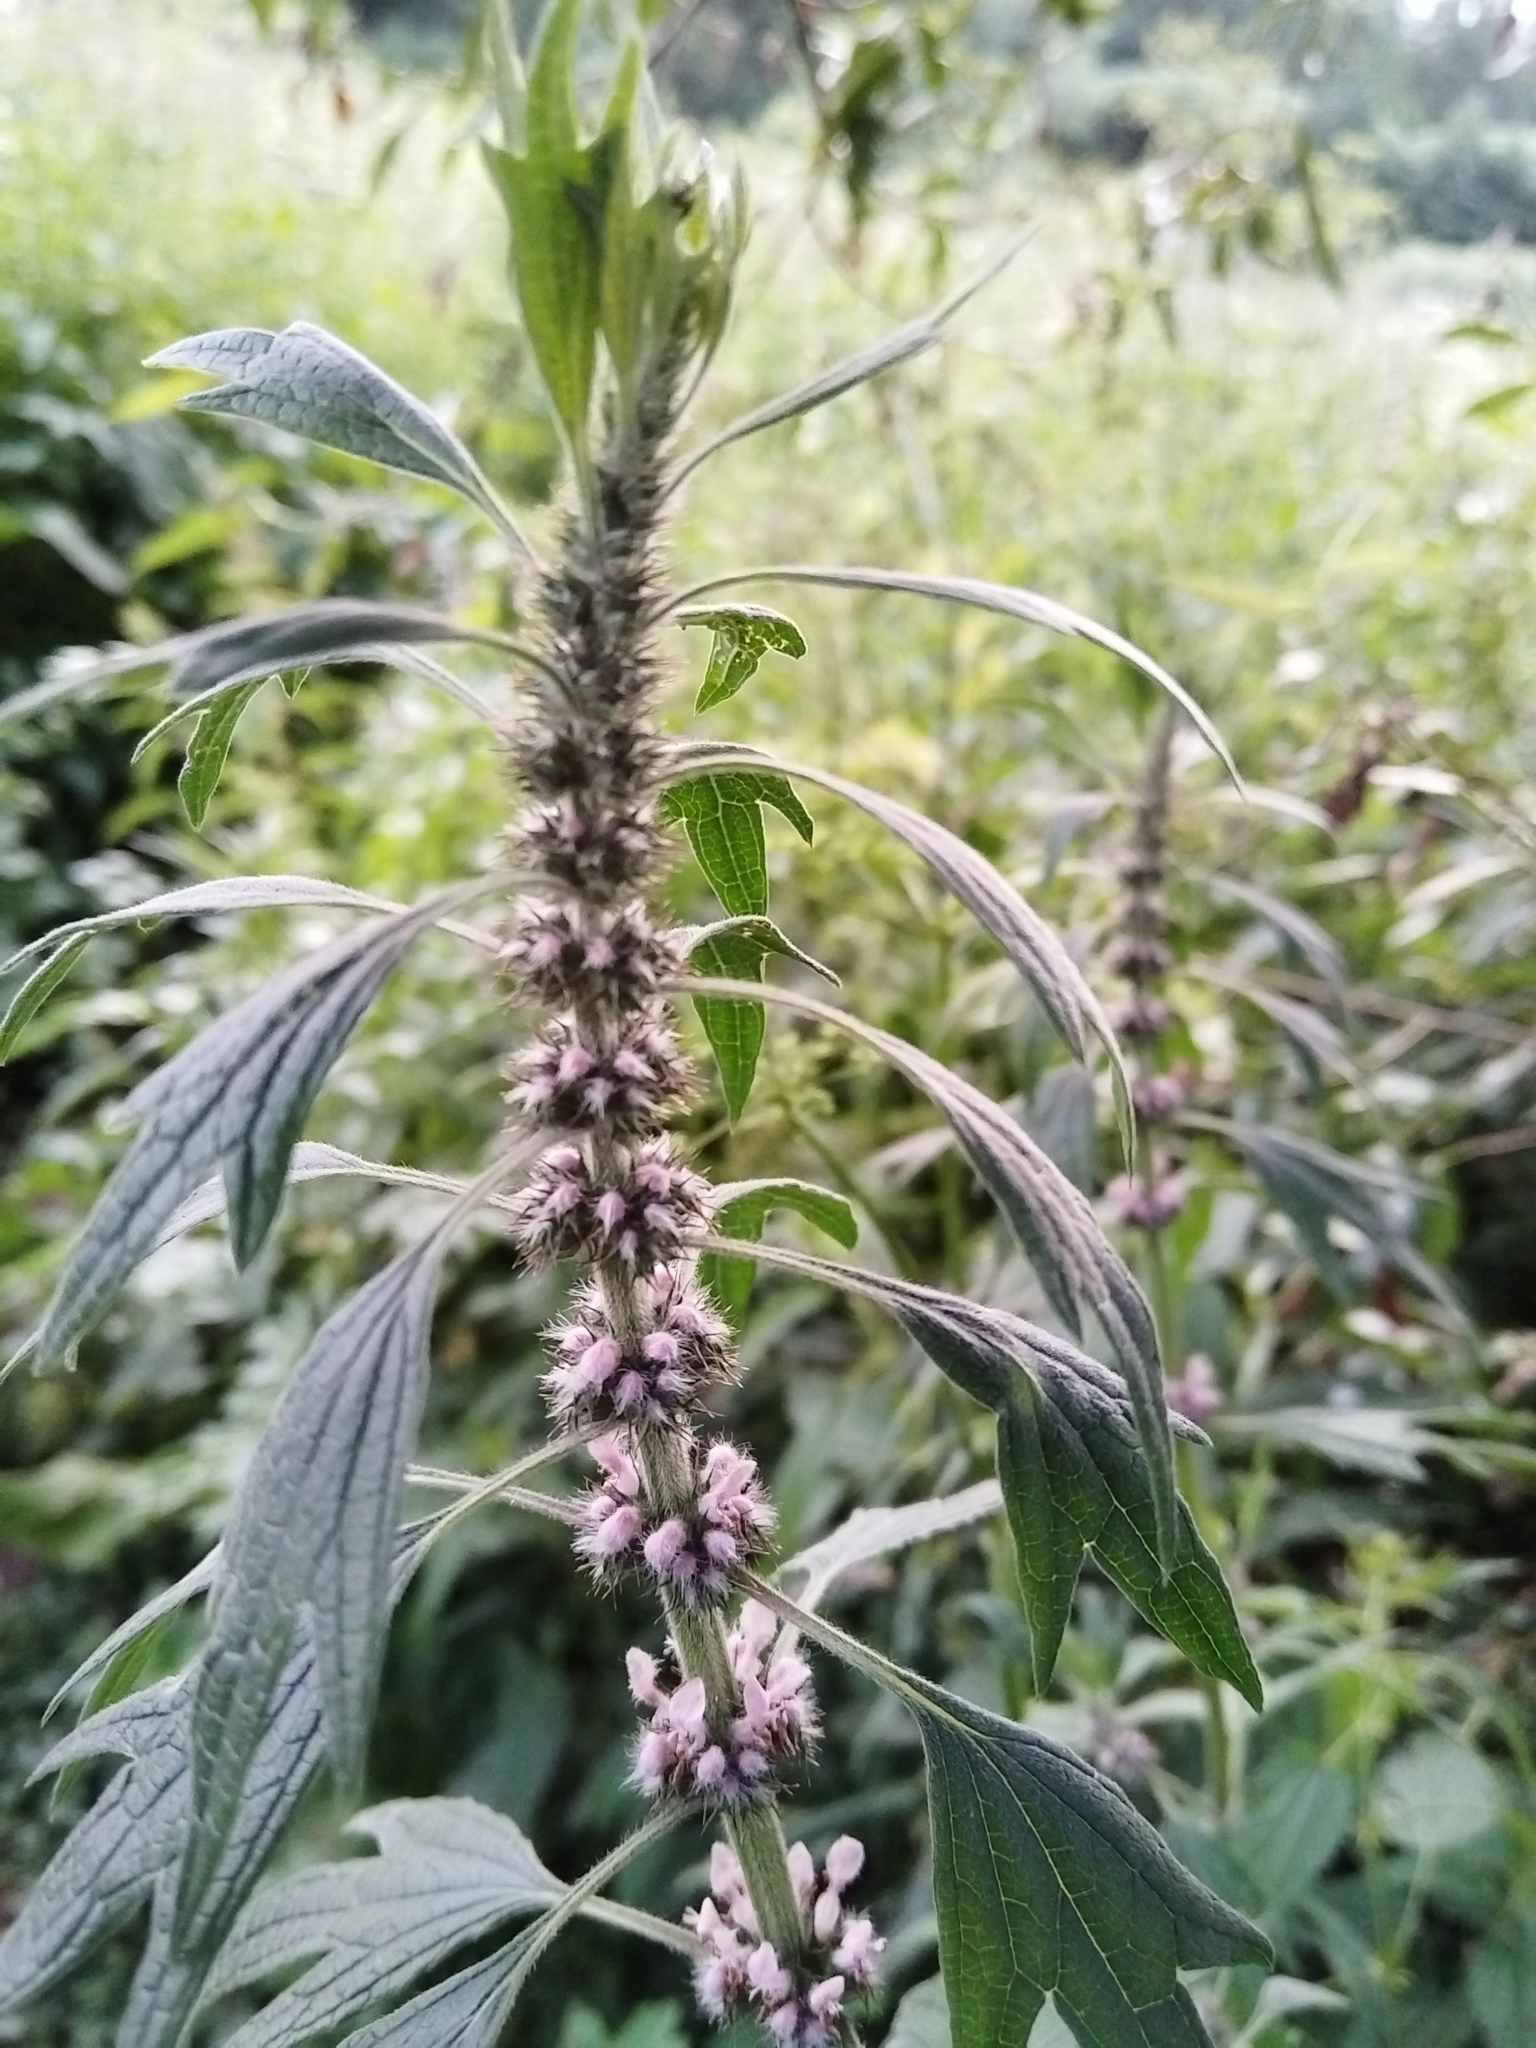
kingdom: Plantae
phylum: Tracheophyta
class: Magnoliopsida
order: Lamiales
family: Lamiaceae
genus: Leonurus
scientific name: Leonurus quinquelobatus
